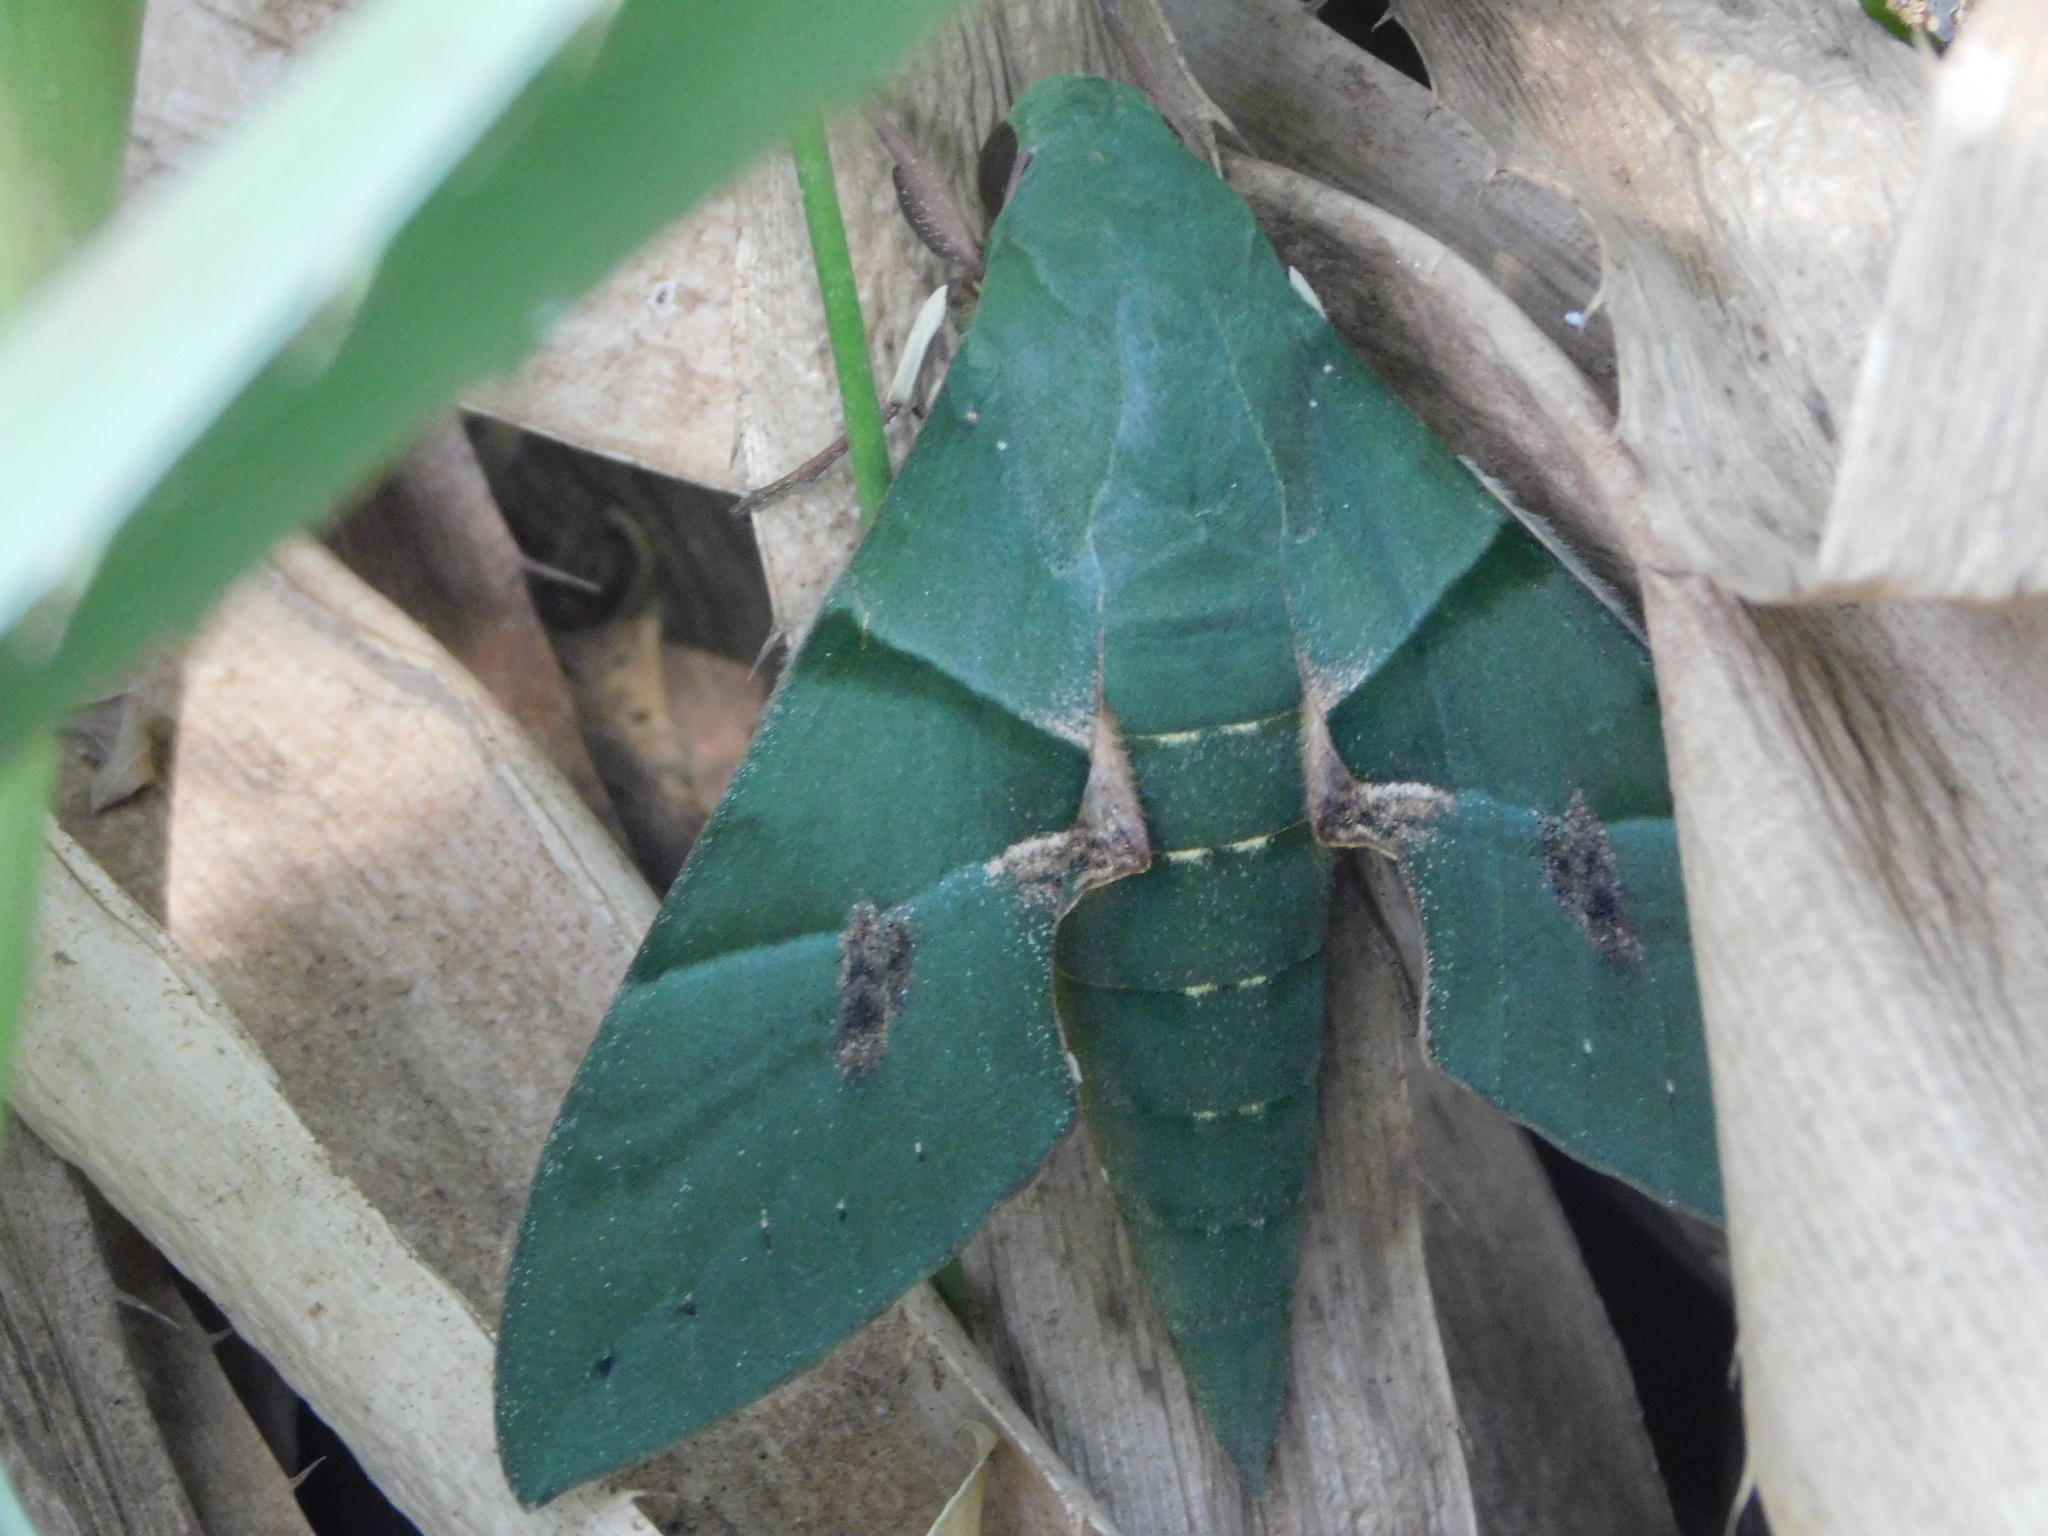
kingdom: Animalia
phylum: Arthropoda
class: Insecta
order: Lepidoptera
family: Sphingidae
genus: Eumorpha
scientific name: Eumorpha labruscae
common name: Gaudy sphinx
